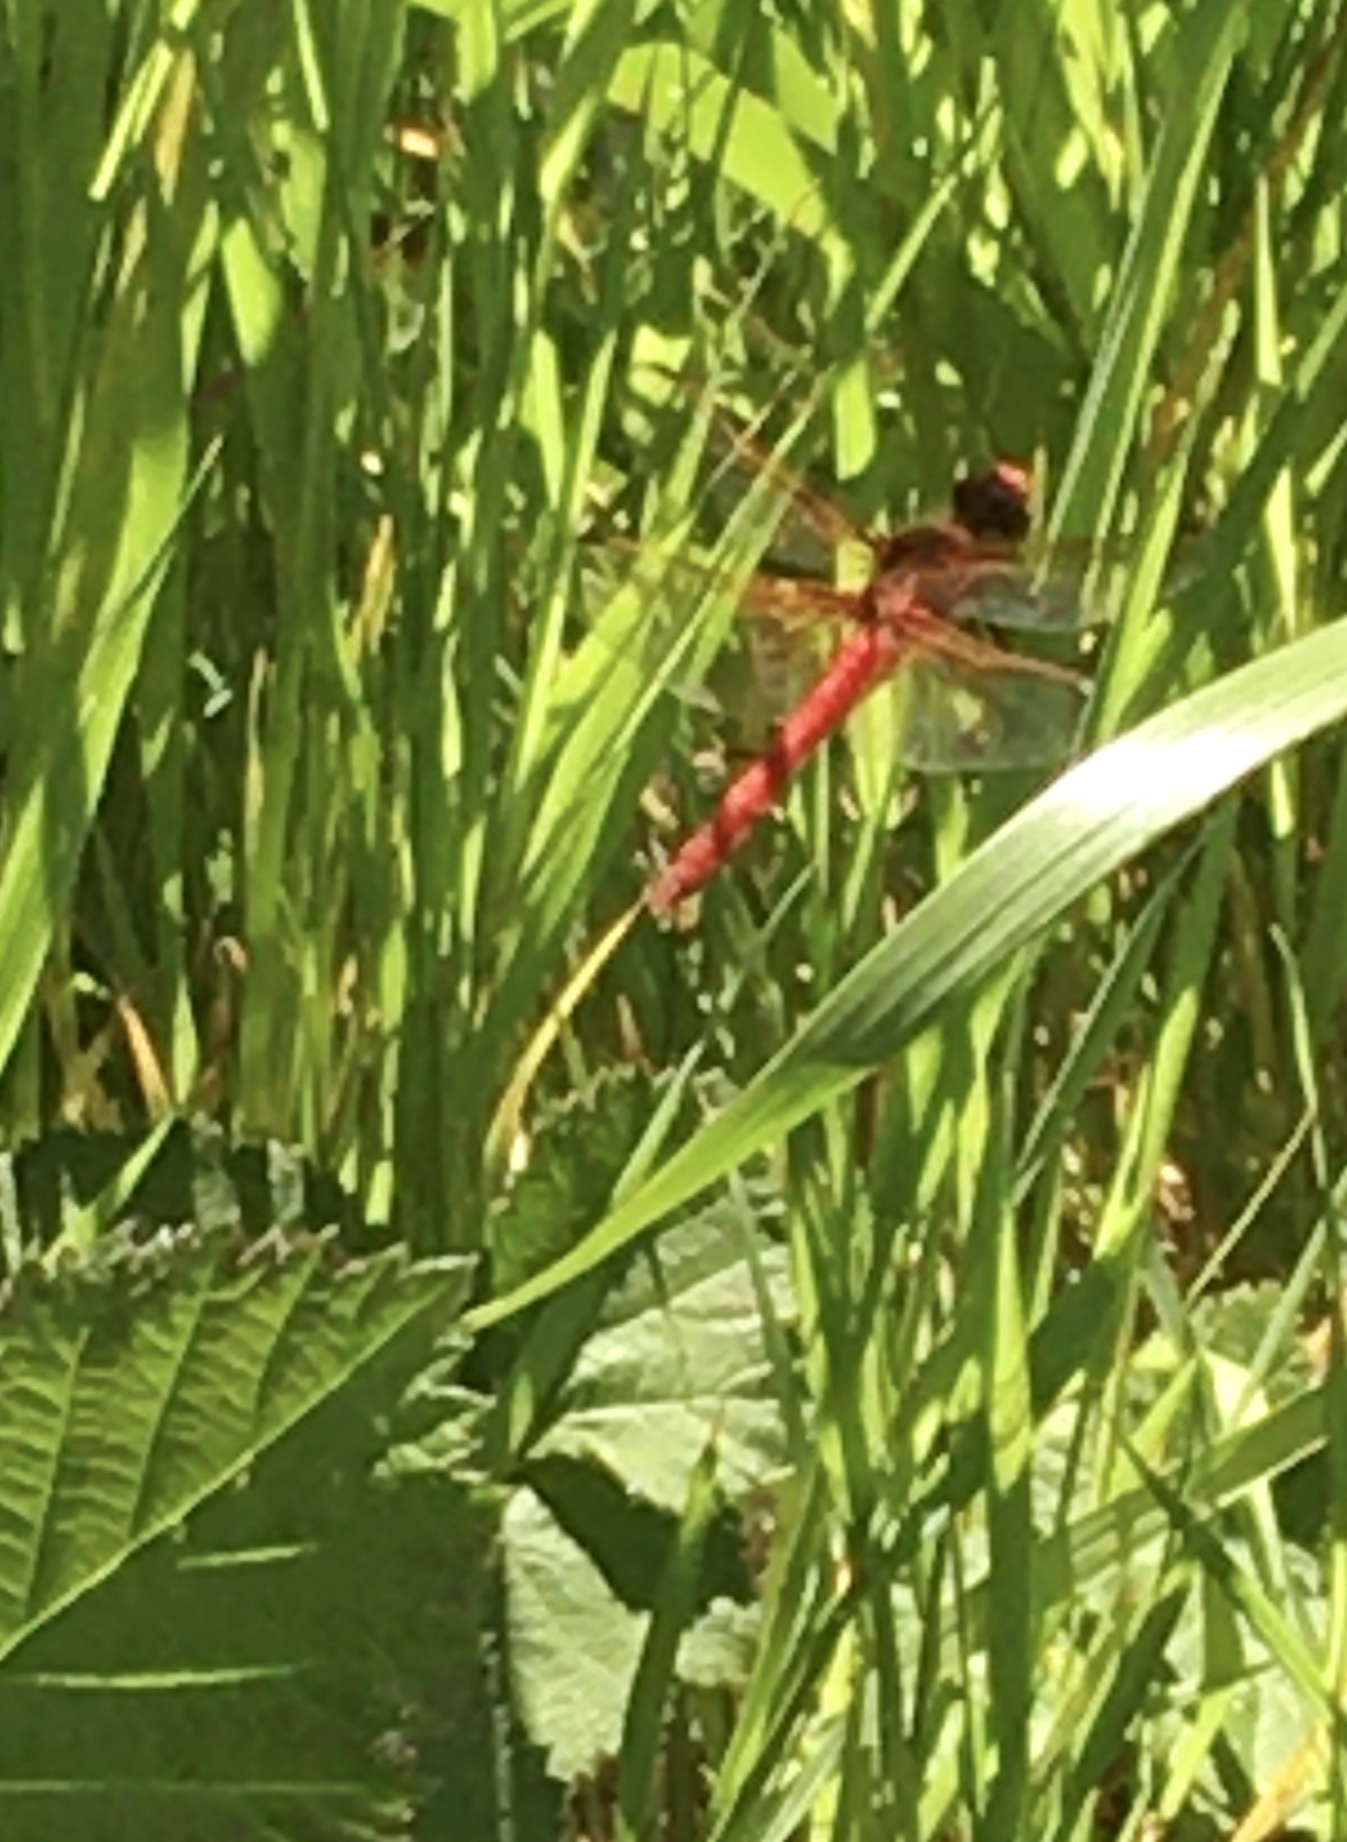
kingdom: Animalia
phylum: Arthropoda
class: Insecta
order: Odonata
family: Libellulidae
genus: Libellula
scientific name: Libellula saturata
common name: Flame skimmer
